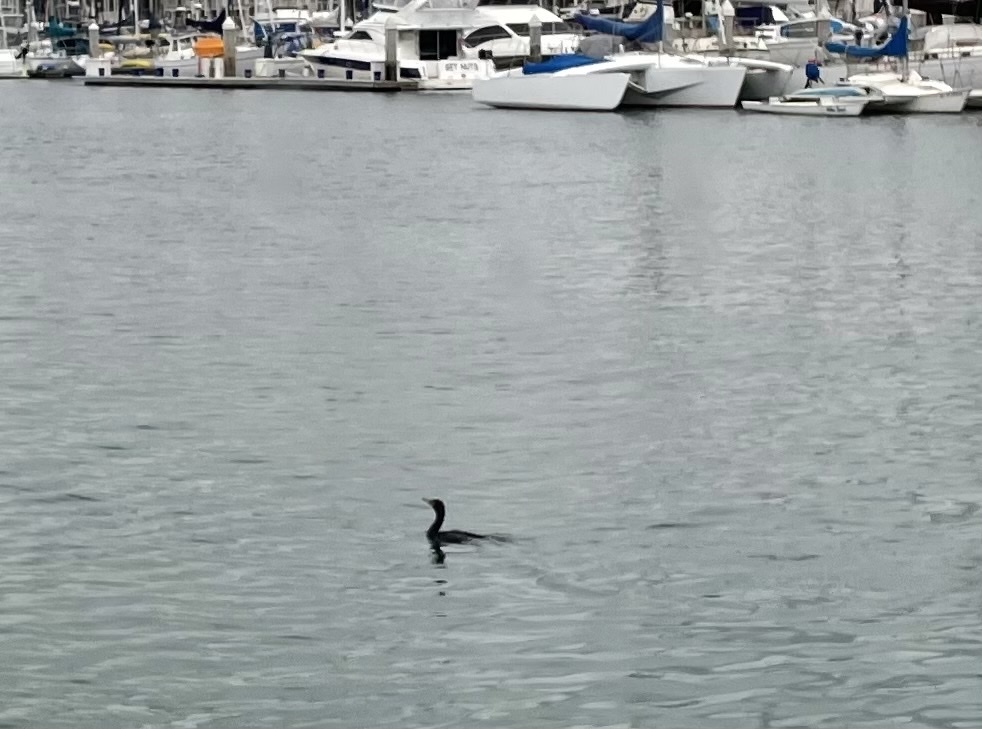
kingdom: Animalia
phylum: Chordata
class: Aves
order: Suliformes
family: Phalacrocoracidae
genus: Phalacrocorax
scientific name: Phalacrocorax auritus
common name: Double-crested cormorant
